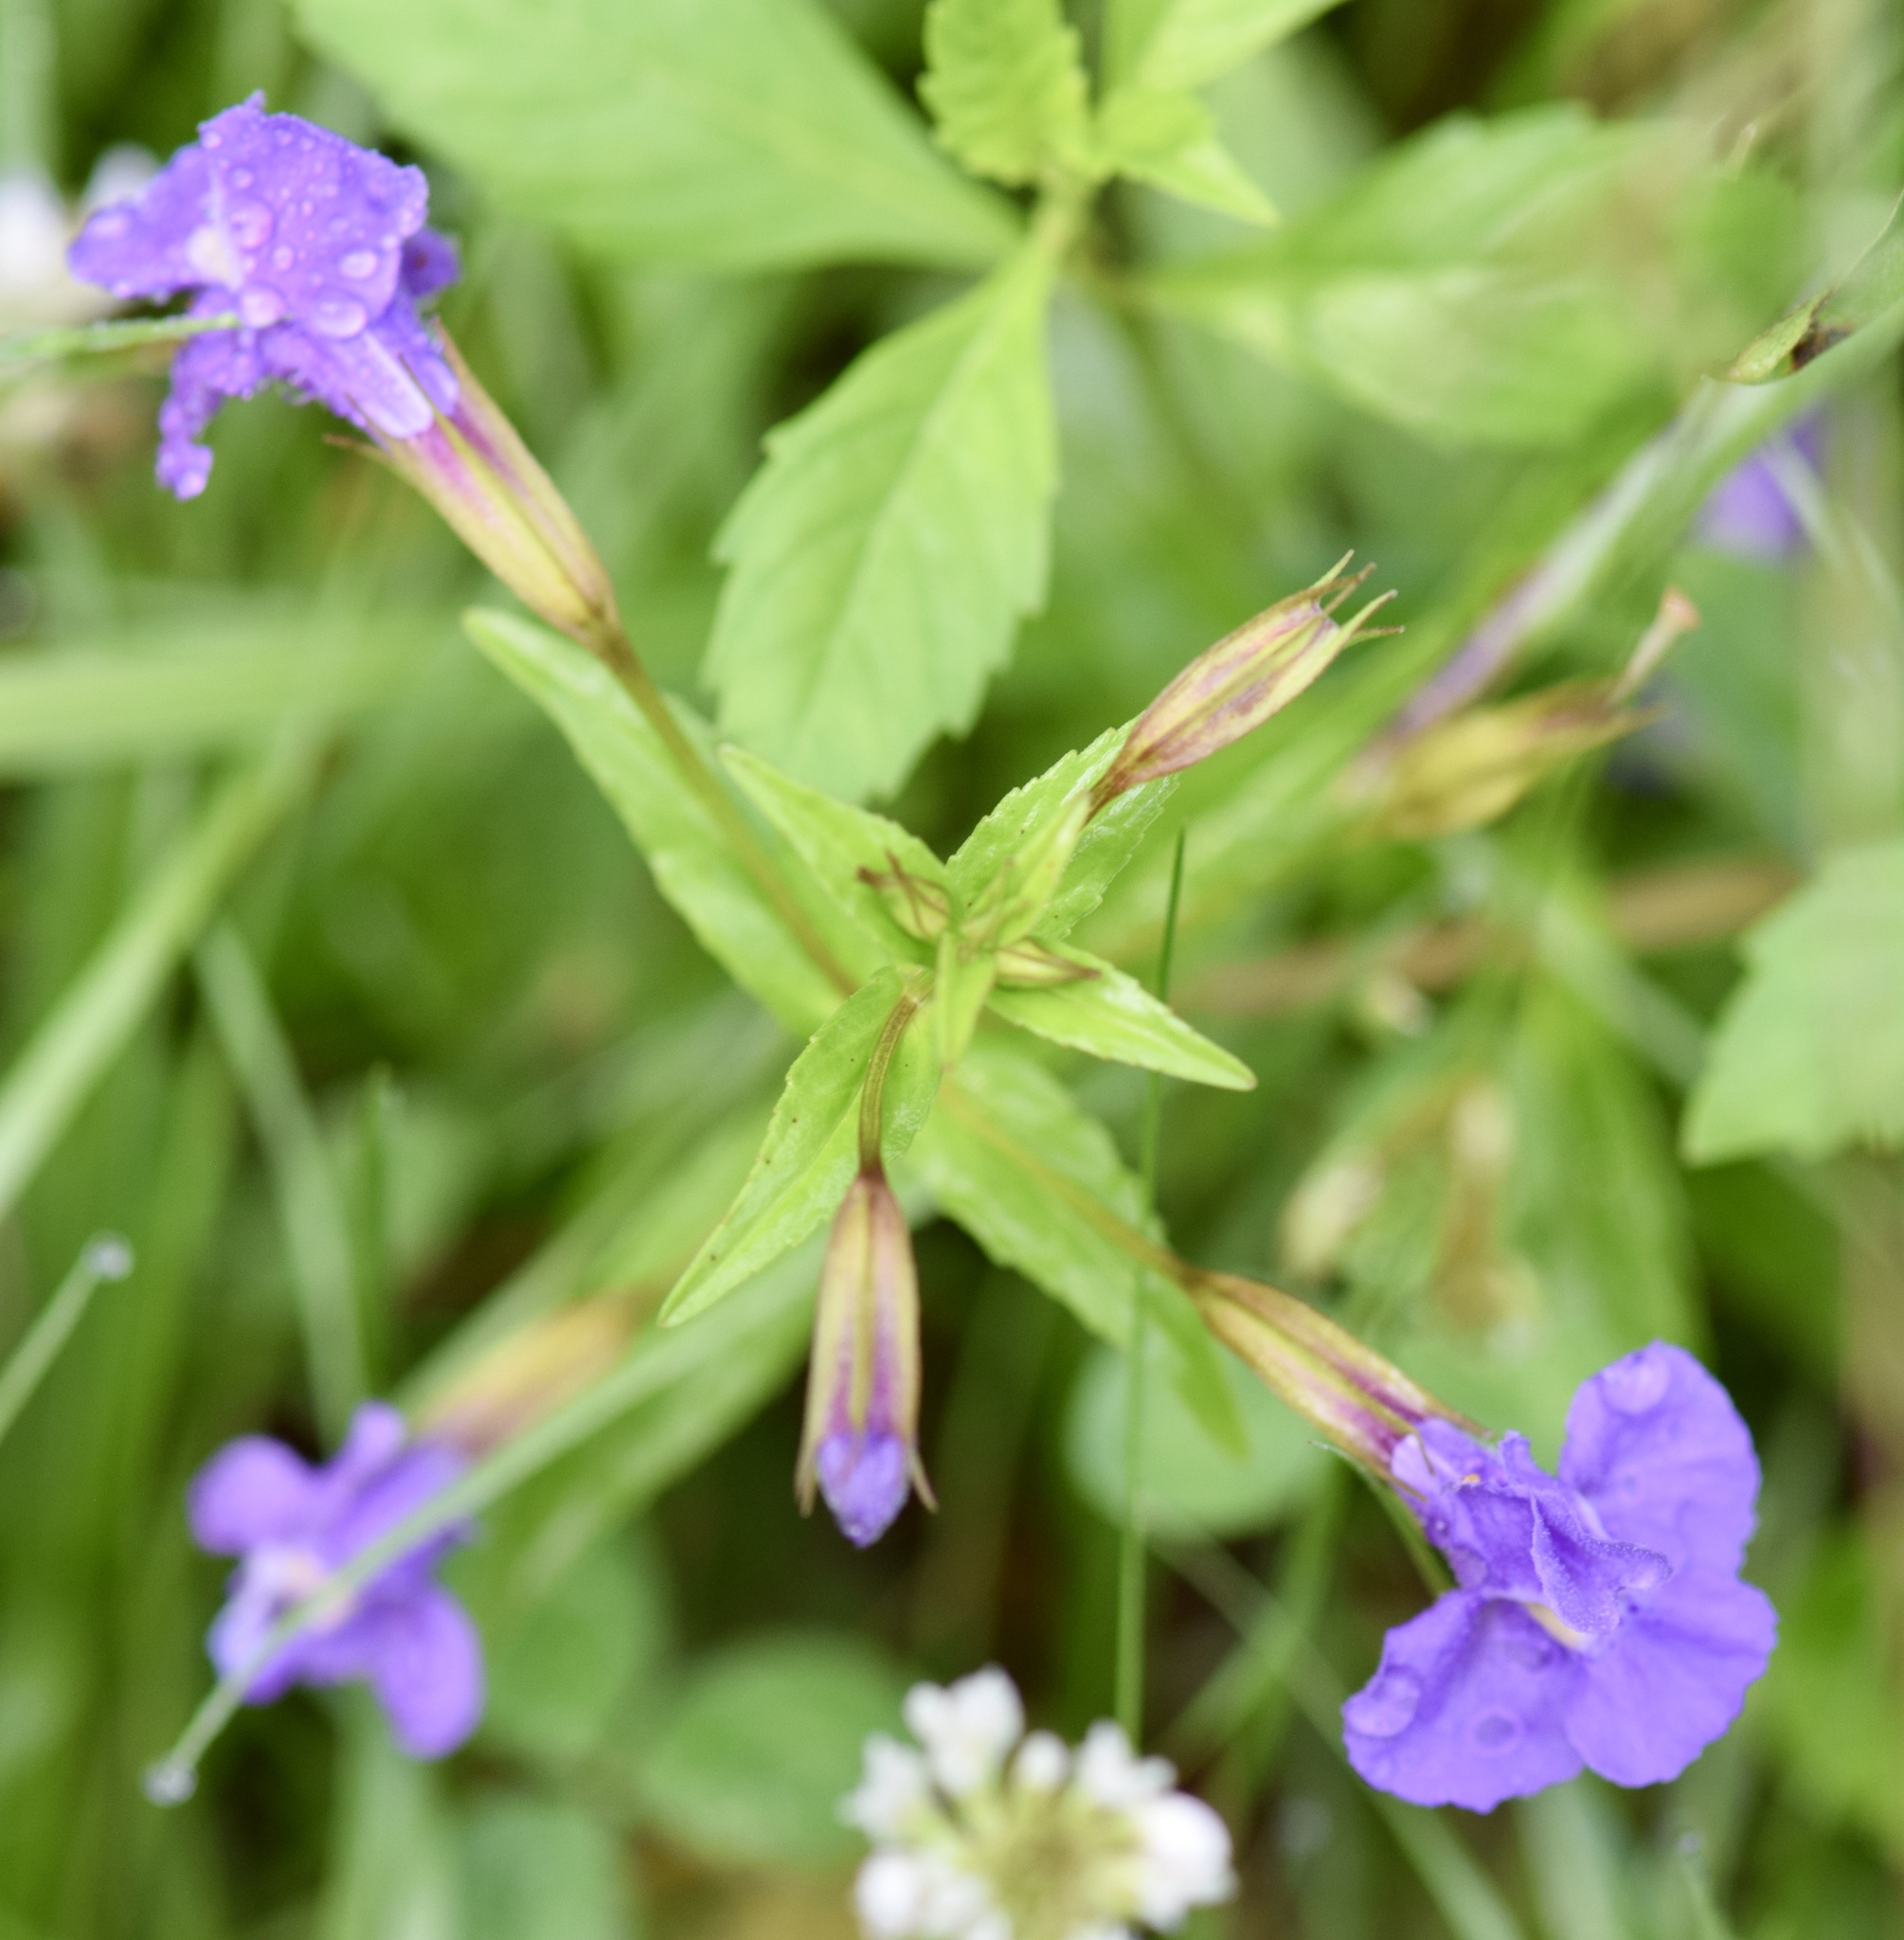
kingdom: Plantae
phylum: Tracheophyta
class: Magnoliopsida
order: Lamiales
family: Phrymaceae
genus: Mimulus
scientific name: Mimulus ringens
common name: Allegheny monkeyflower
